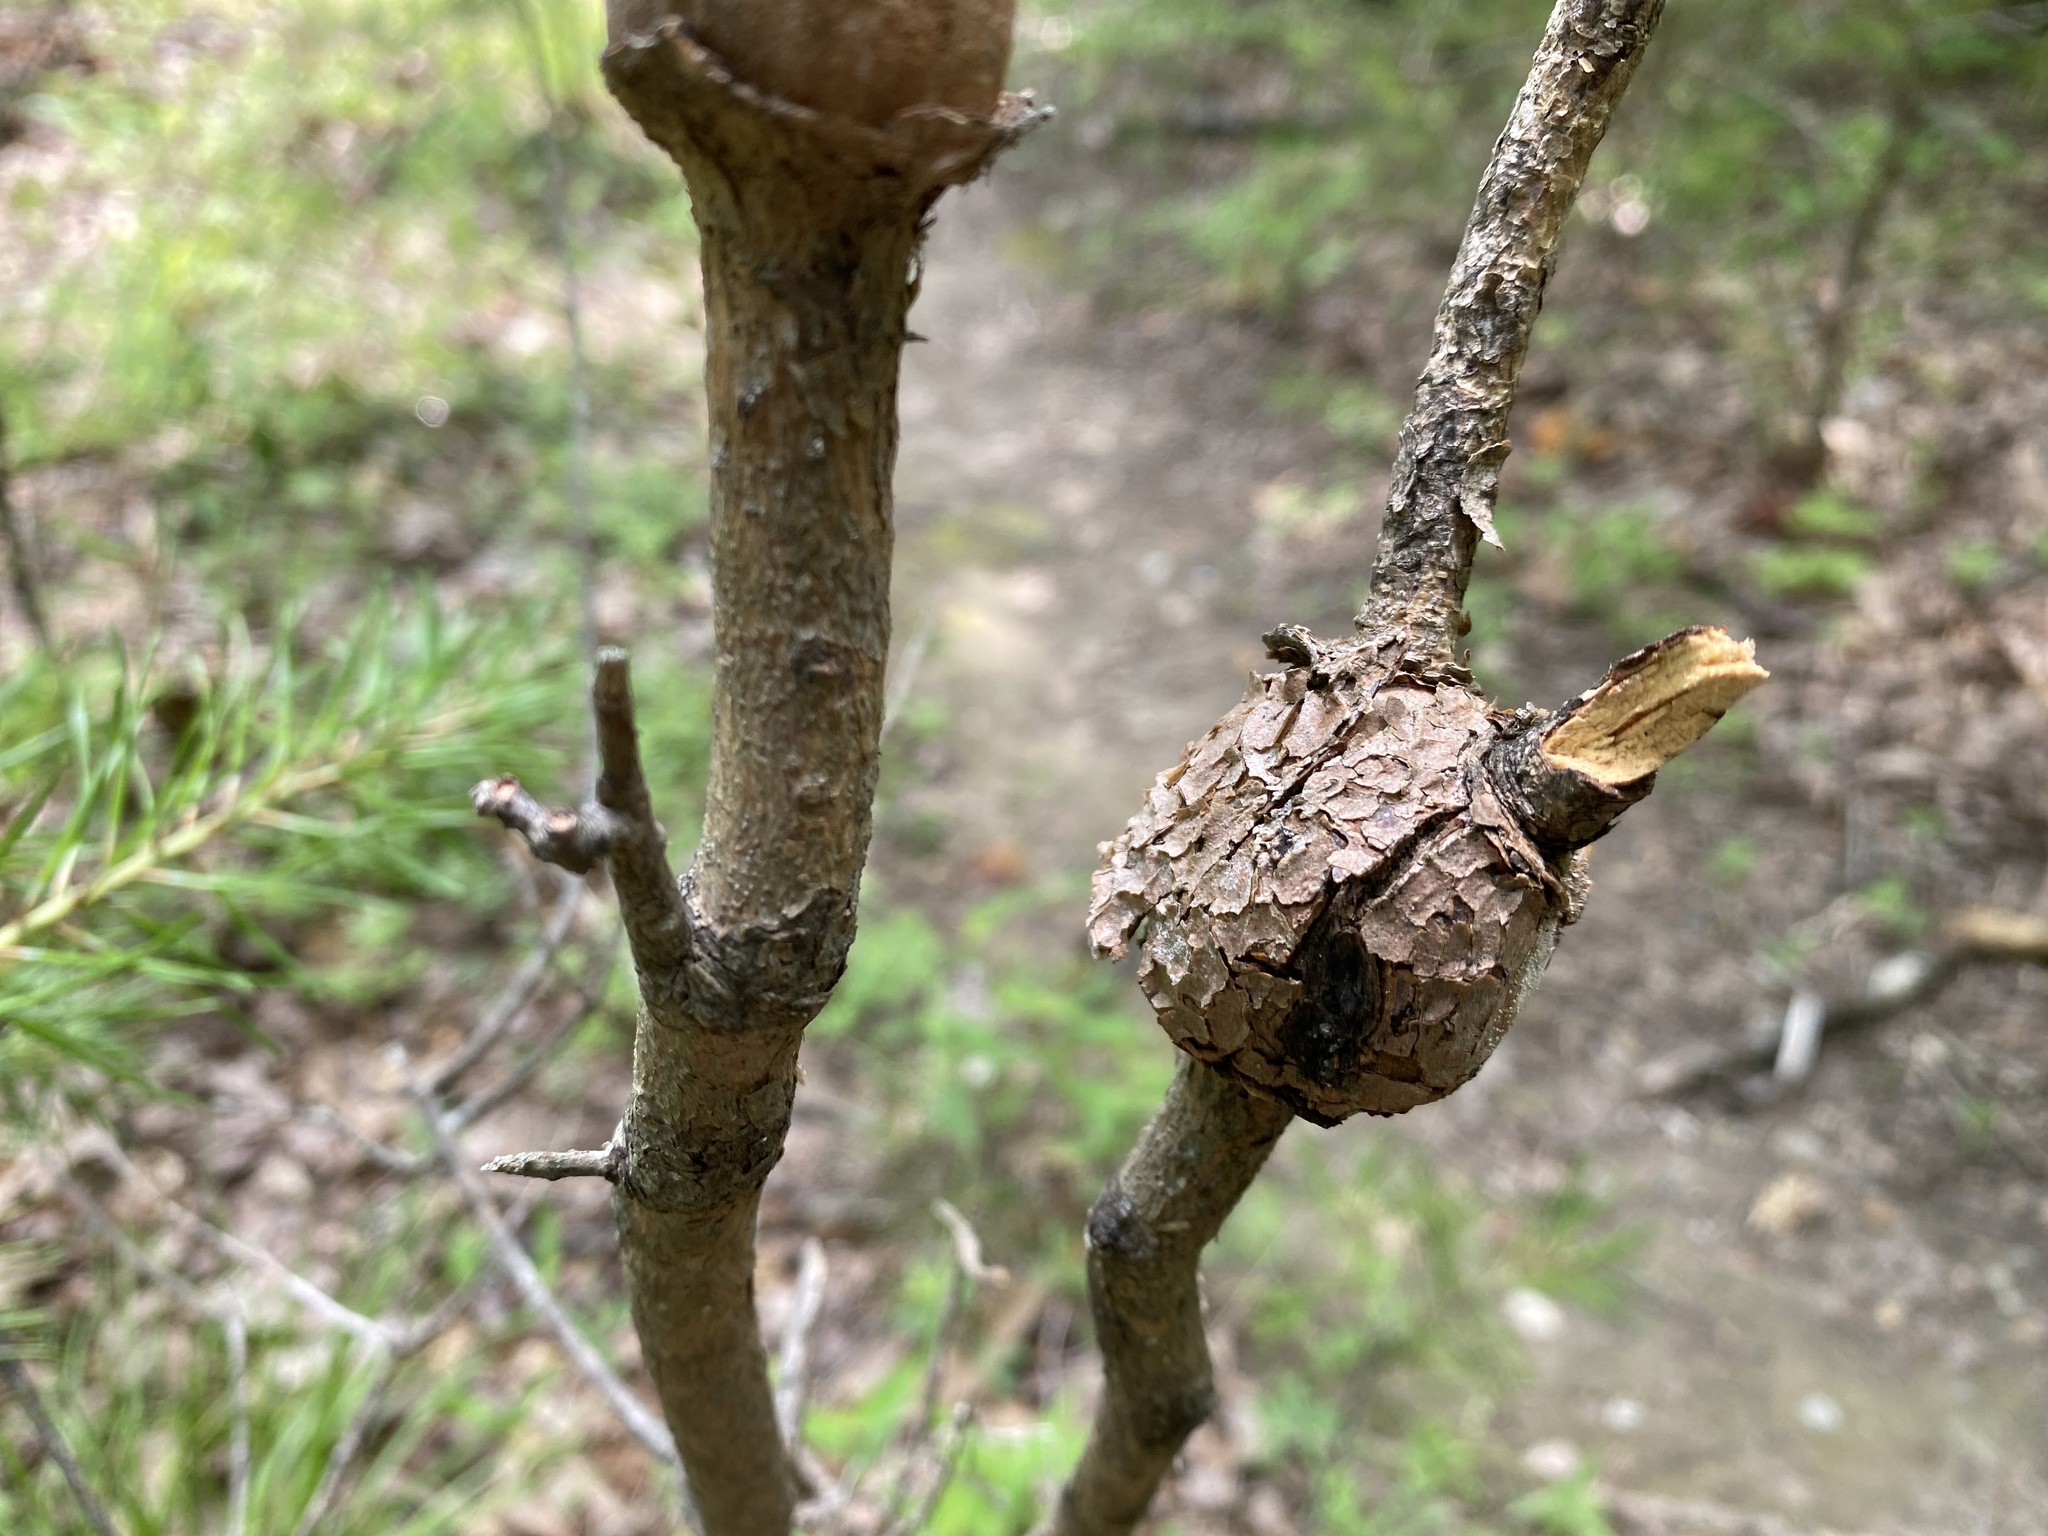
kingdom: Fungi
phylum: Basidiomycota
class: Pucciniomycetes
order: Pucciniales
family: Cronartiaceae
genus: Cronartium
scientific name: Cronartium quercuum
